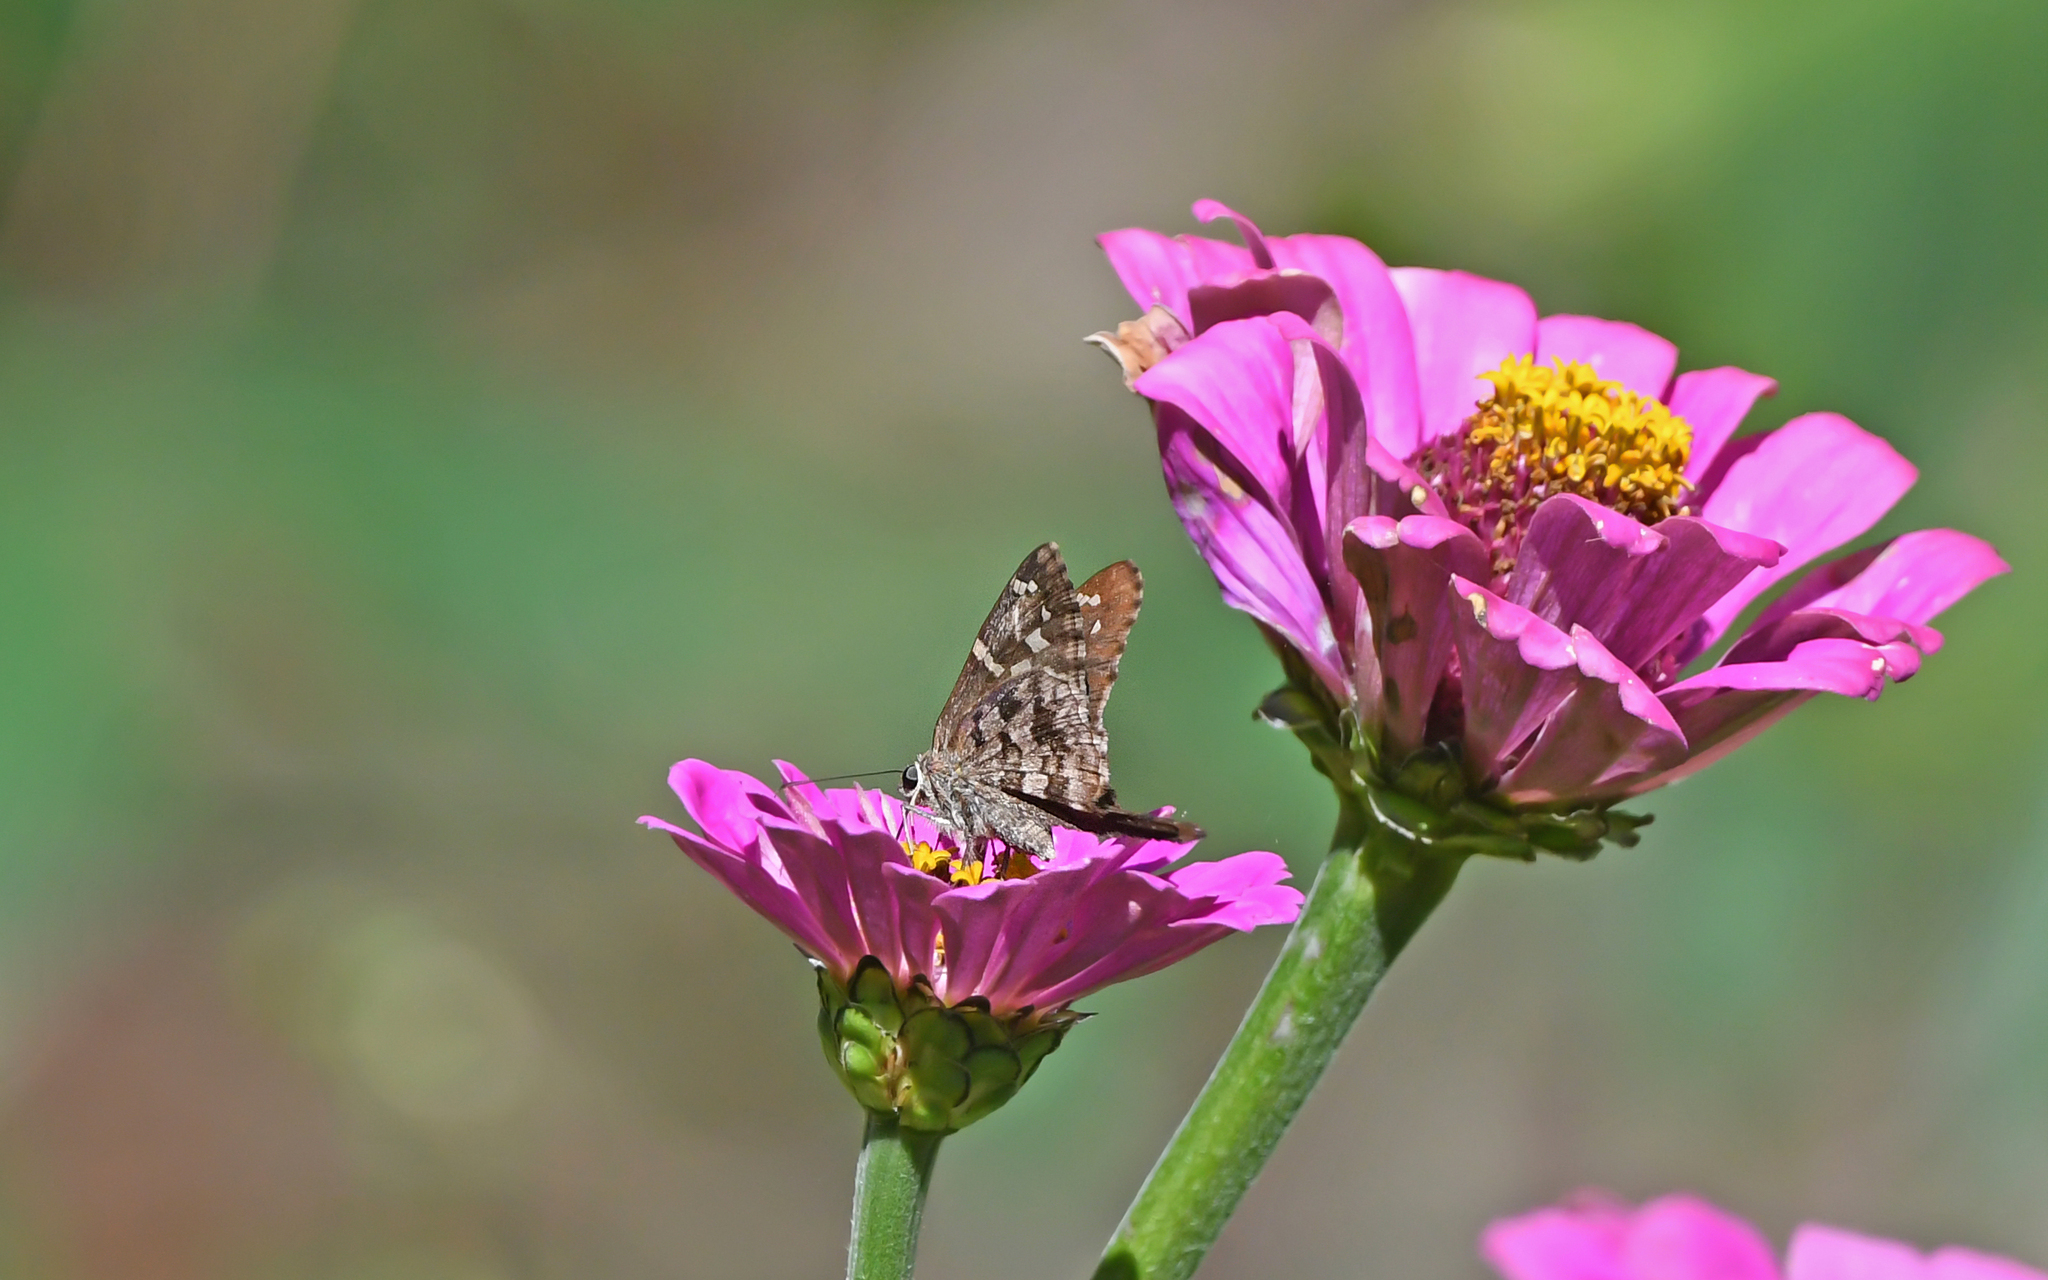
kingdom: Animalia
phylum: Arthropoda
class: Insecta
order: Lepidoptera
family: Hesperiidae
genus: Thorybes
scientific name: Thorybes
